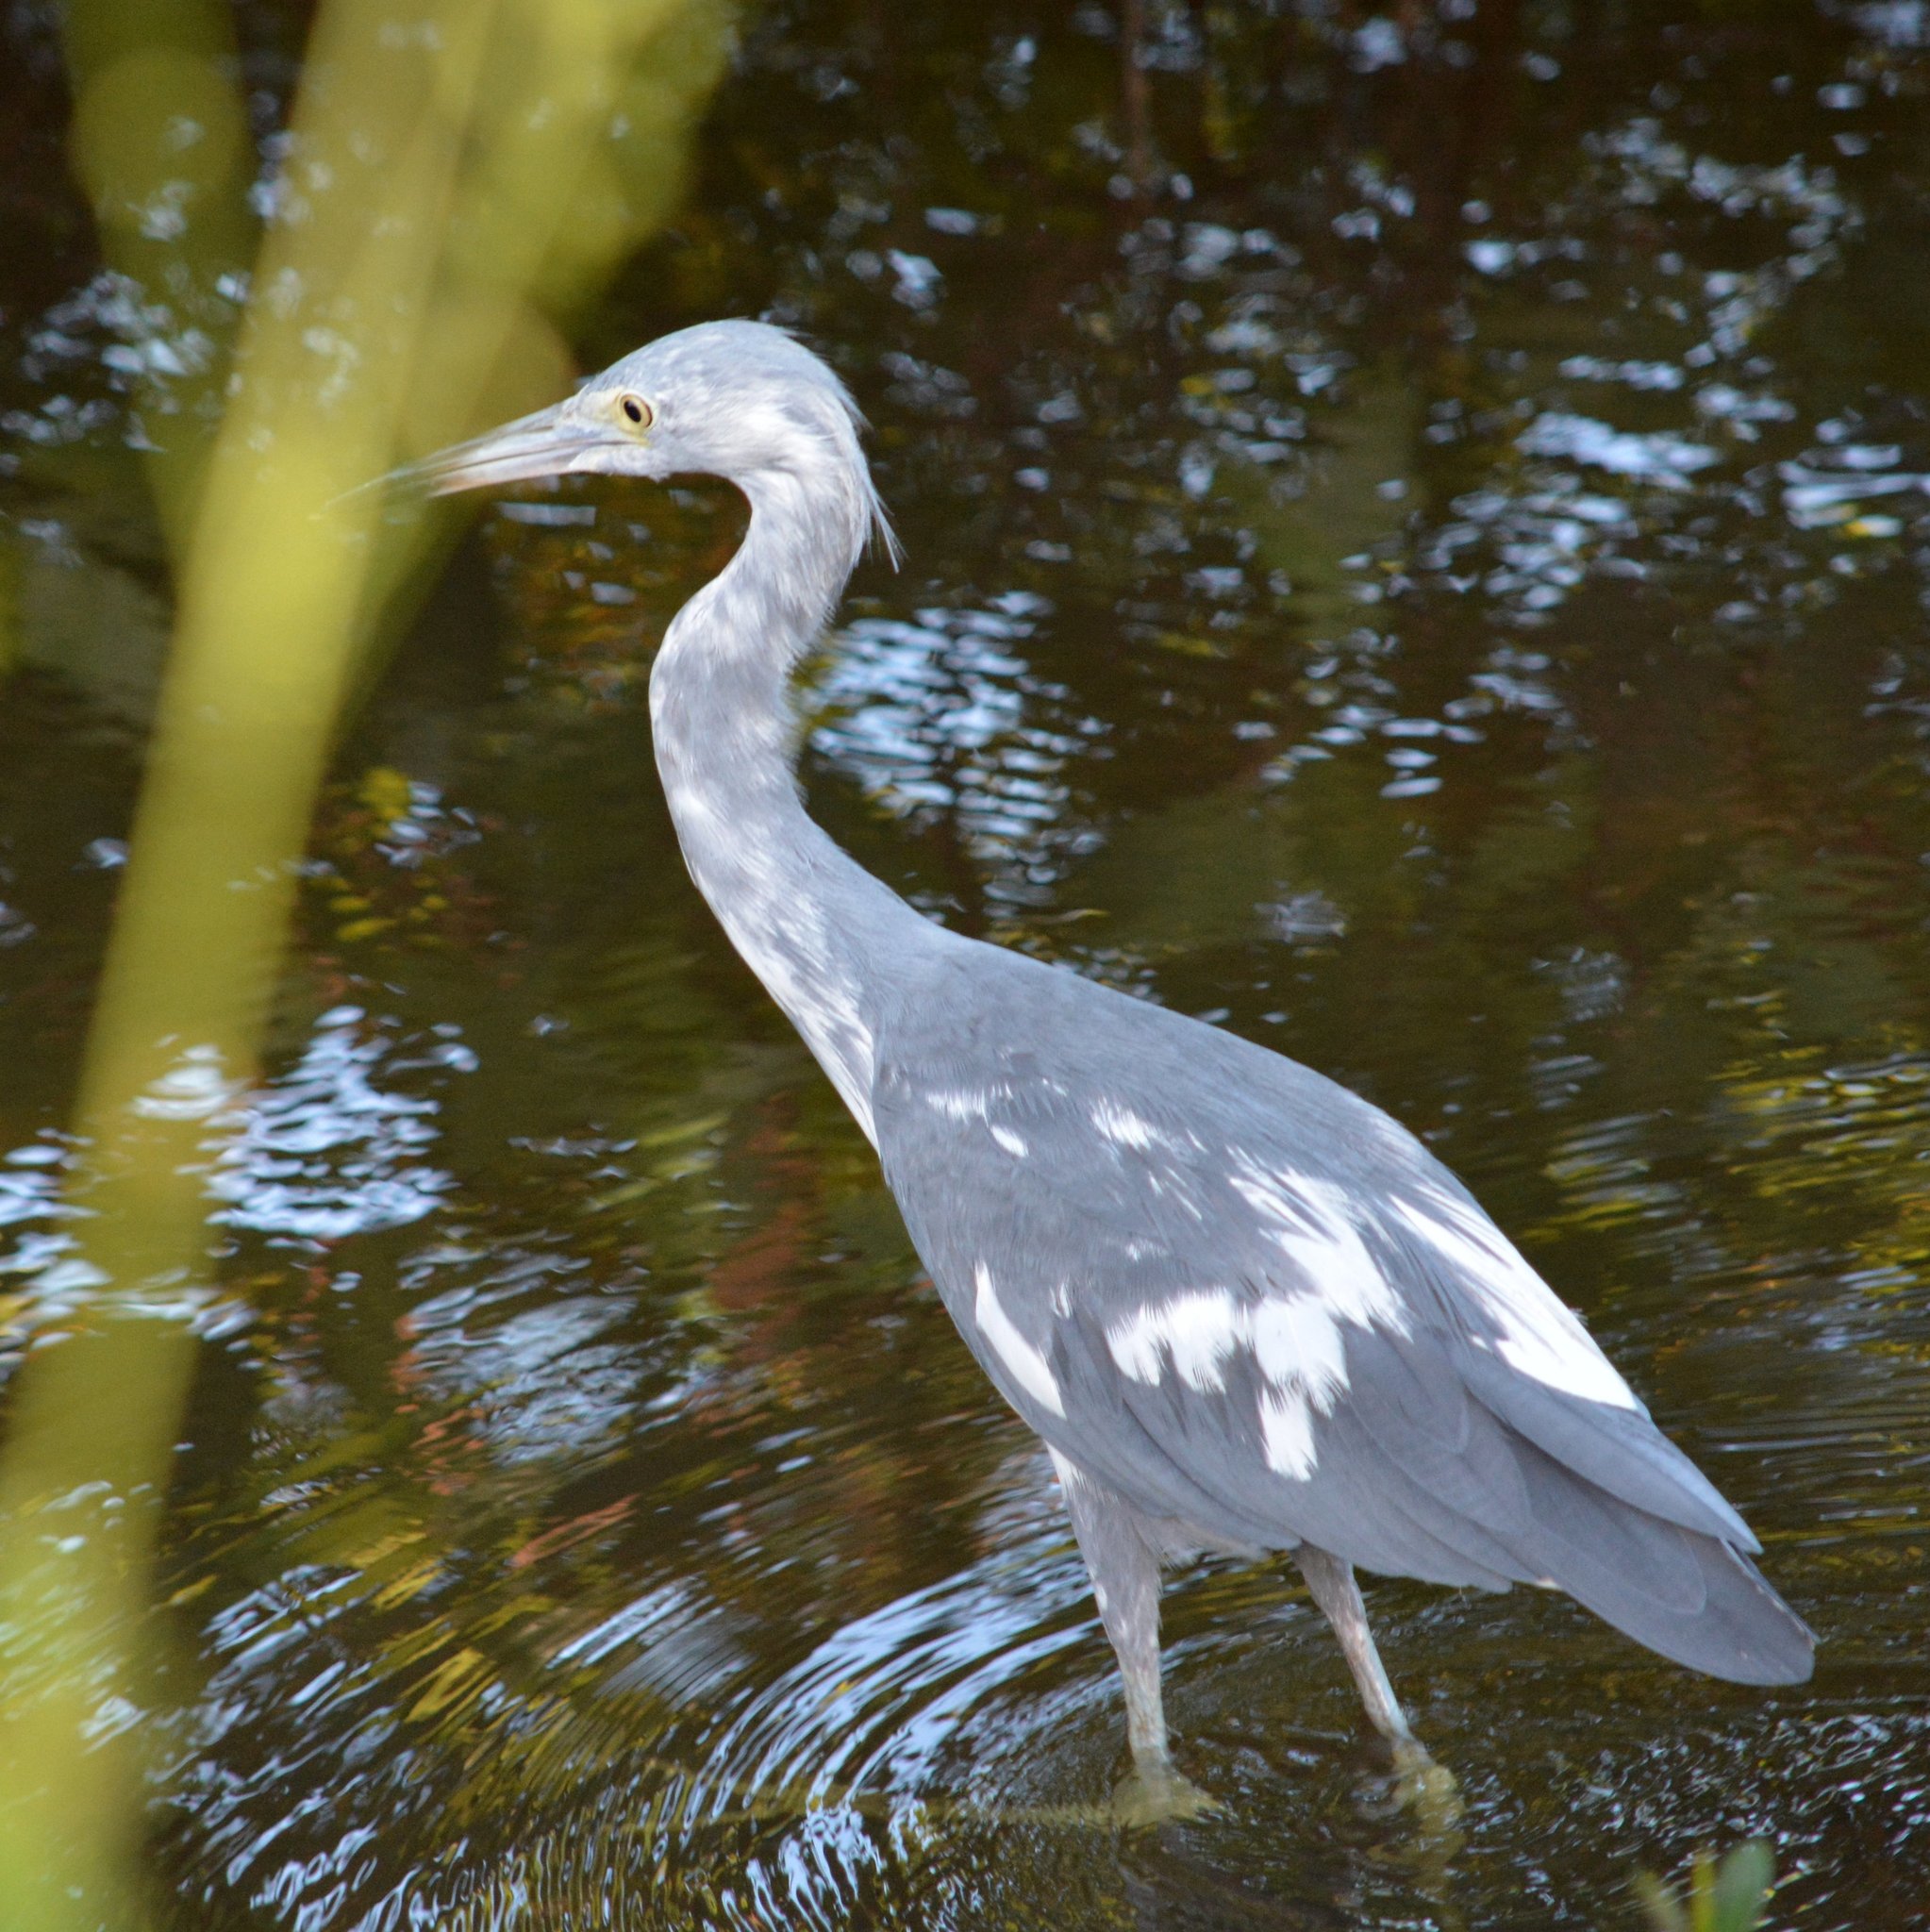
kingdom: Animalia
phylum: Chordata
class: Aves
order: Pelecaniformes
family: Ardeidae
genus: Egretta
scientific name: Egretta caerulea
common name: Little blue heron
